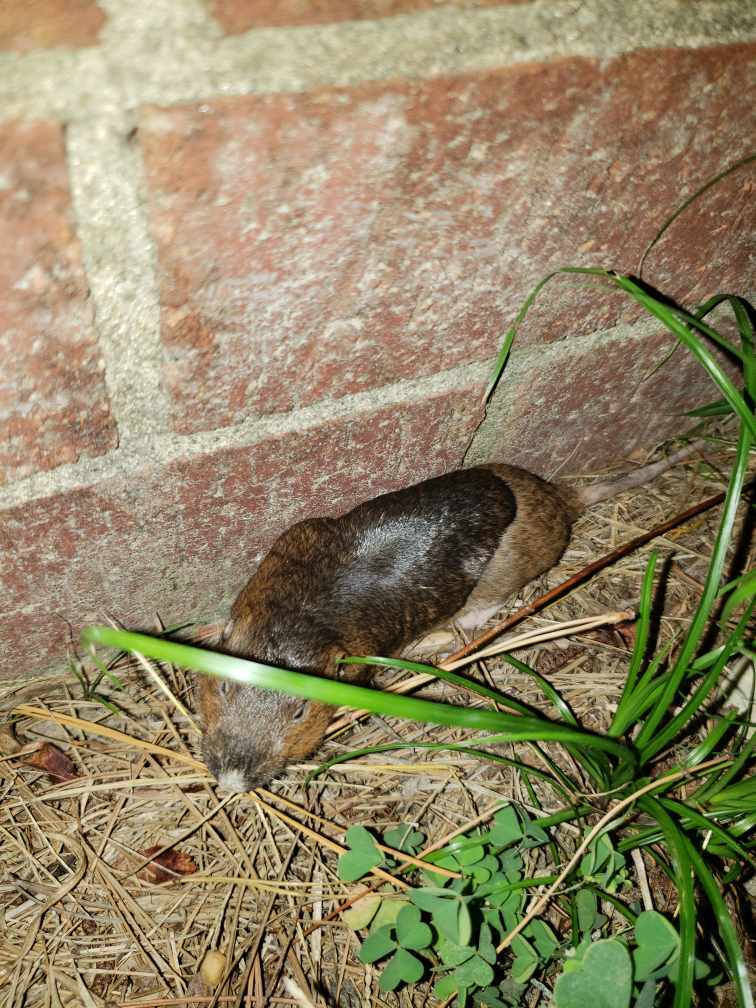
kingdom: Animalia
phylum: Chordata
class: Mammalia
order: Rodentia
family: Geomyidae
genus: Geomys
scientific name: Geomys breviceps
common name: Baird's pocket gopher
